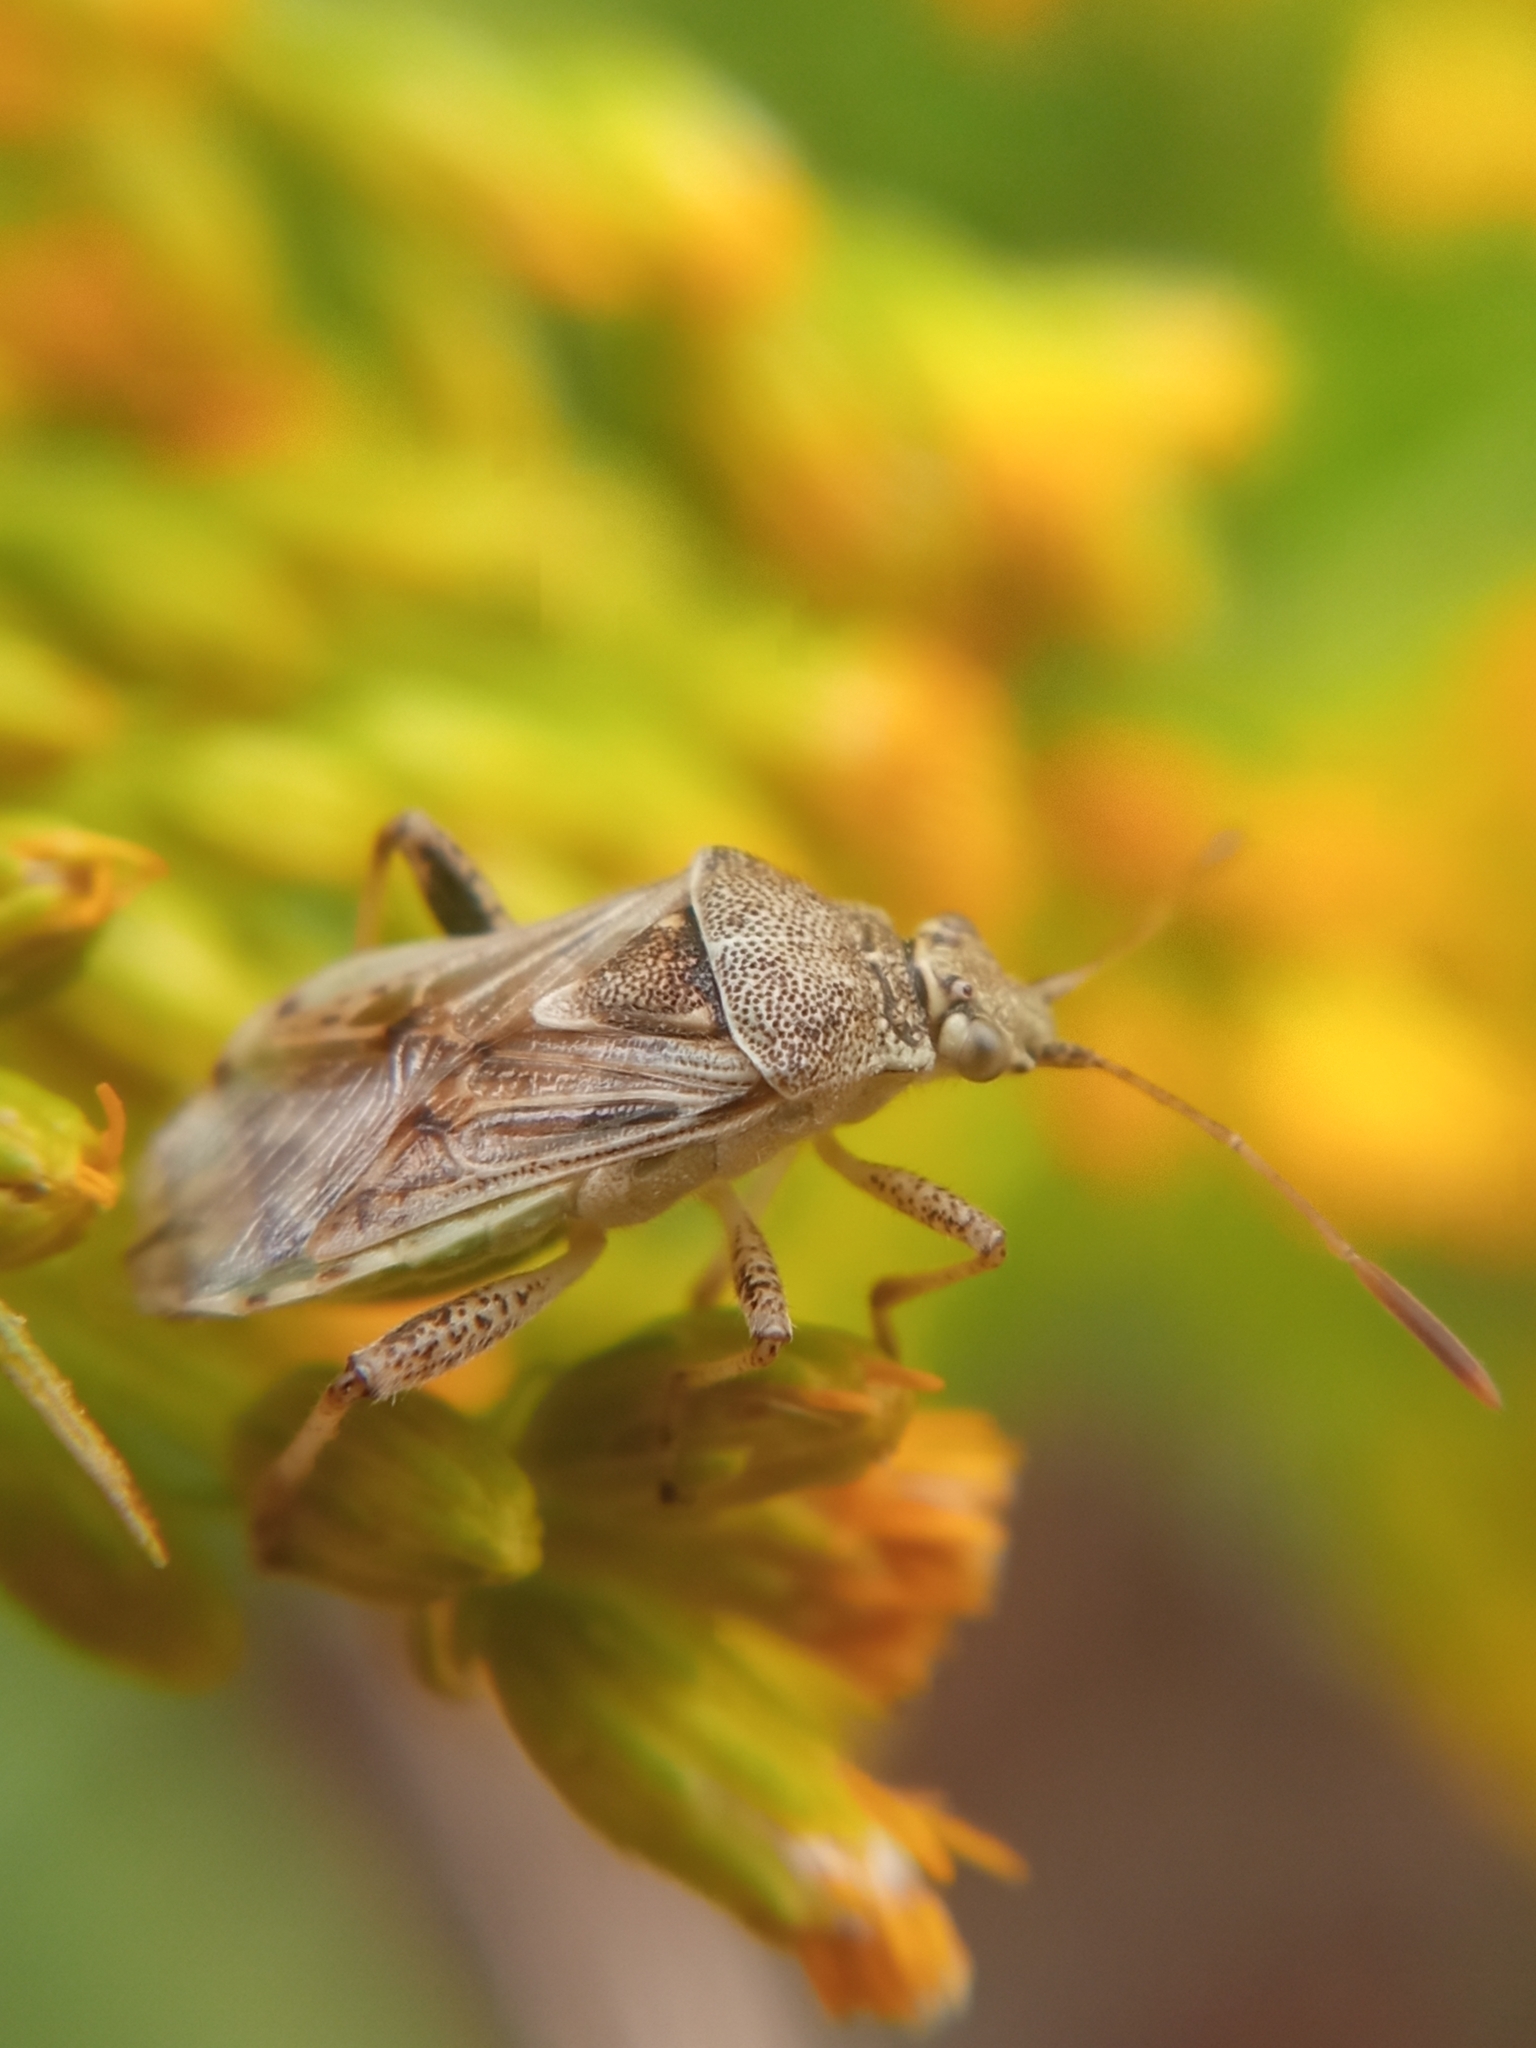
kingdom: Animalia
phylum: Arthropoda
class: Insecta
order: Hemiptera
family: Rhopalidae
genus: Stictopleurus
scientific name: Stictopleurus punctatonervosus
